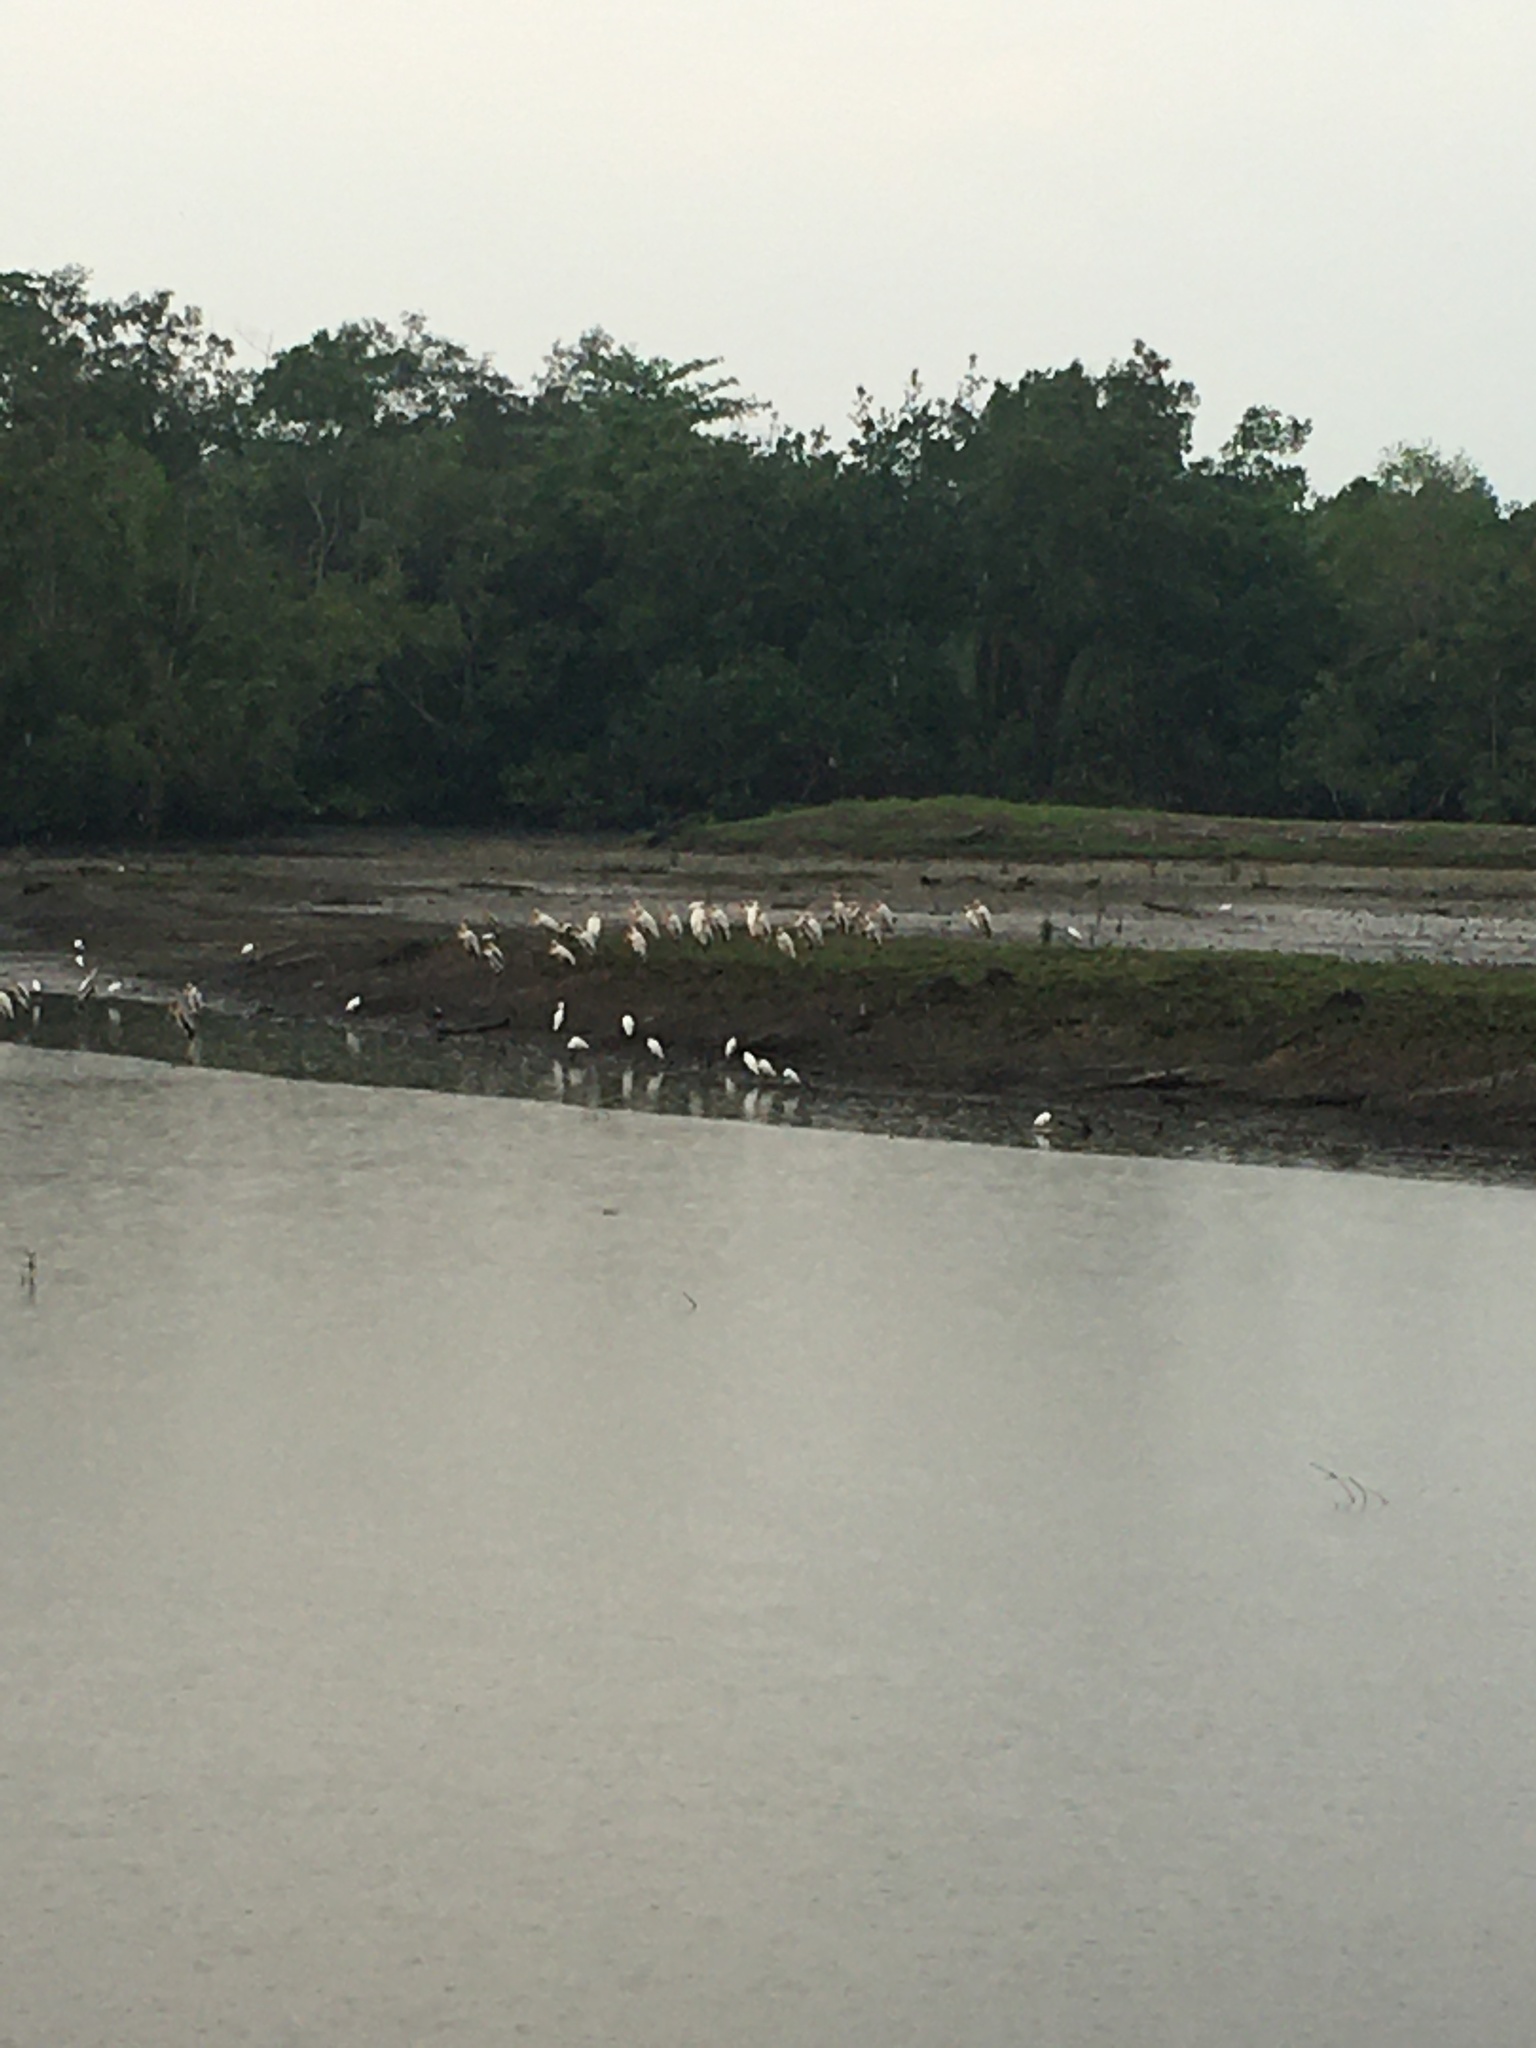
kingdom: Animalia
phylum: Chordata
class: Aves
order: Ciconiiformes
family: Ciconiidae
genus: Mycteria
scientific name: Mycteria
